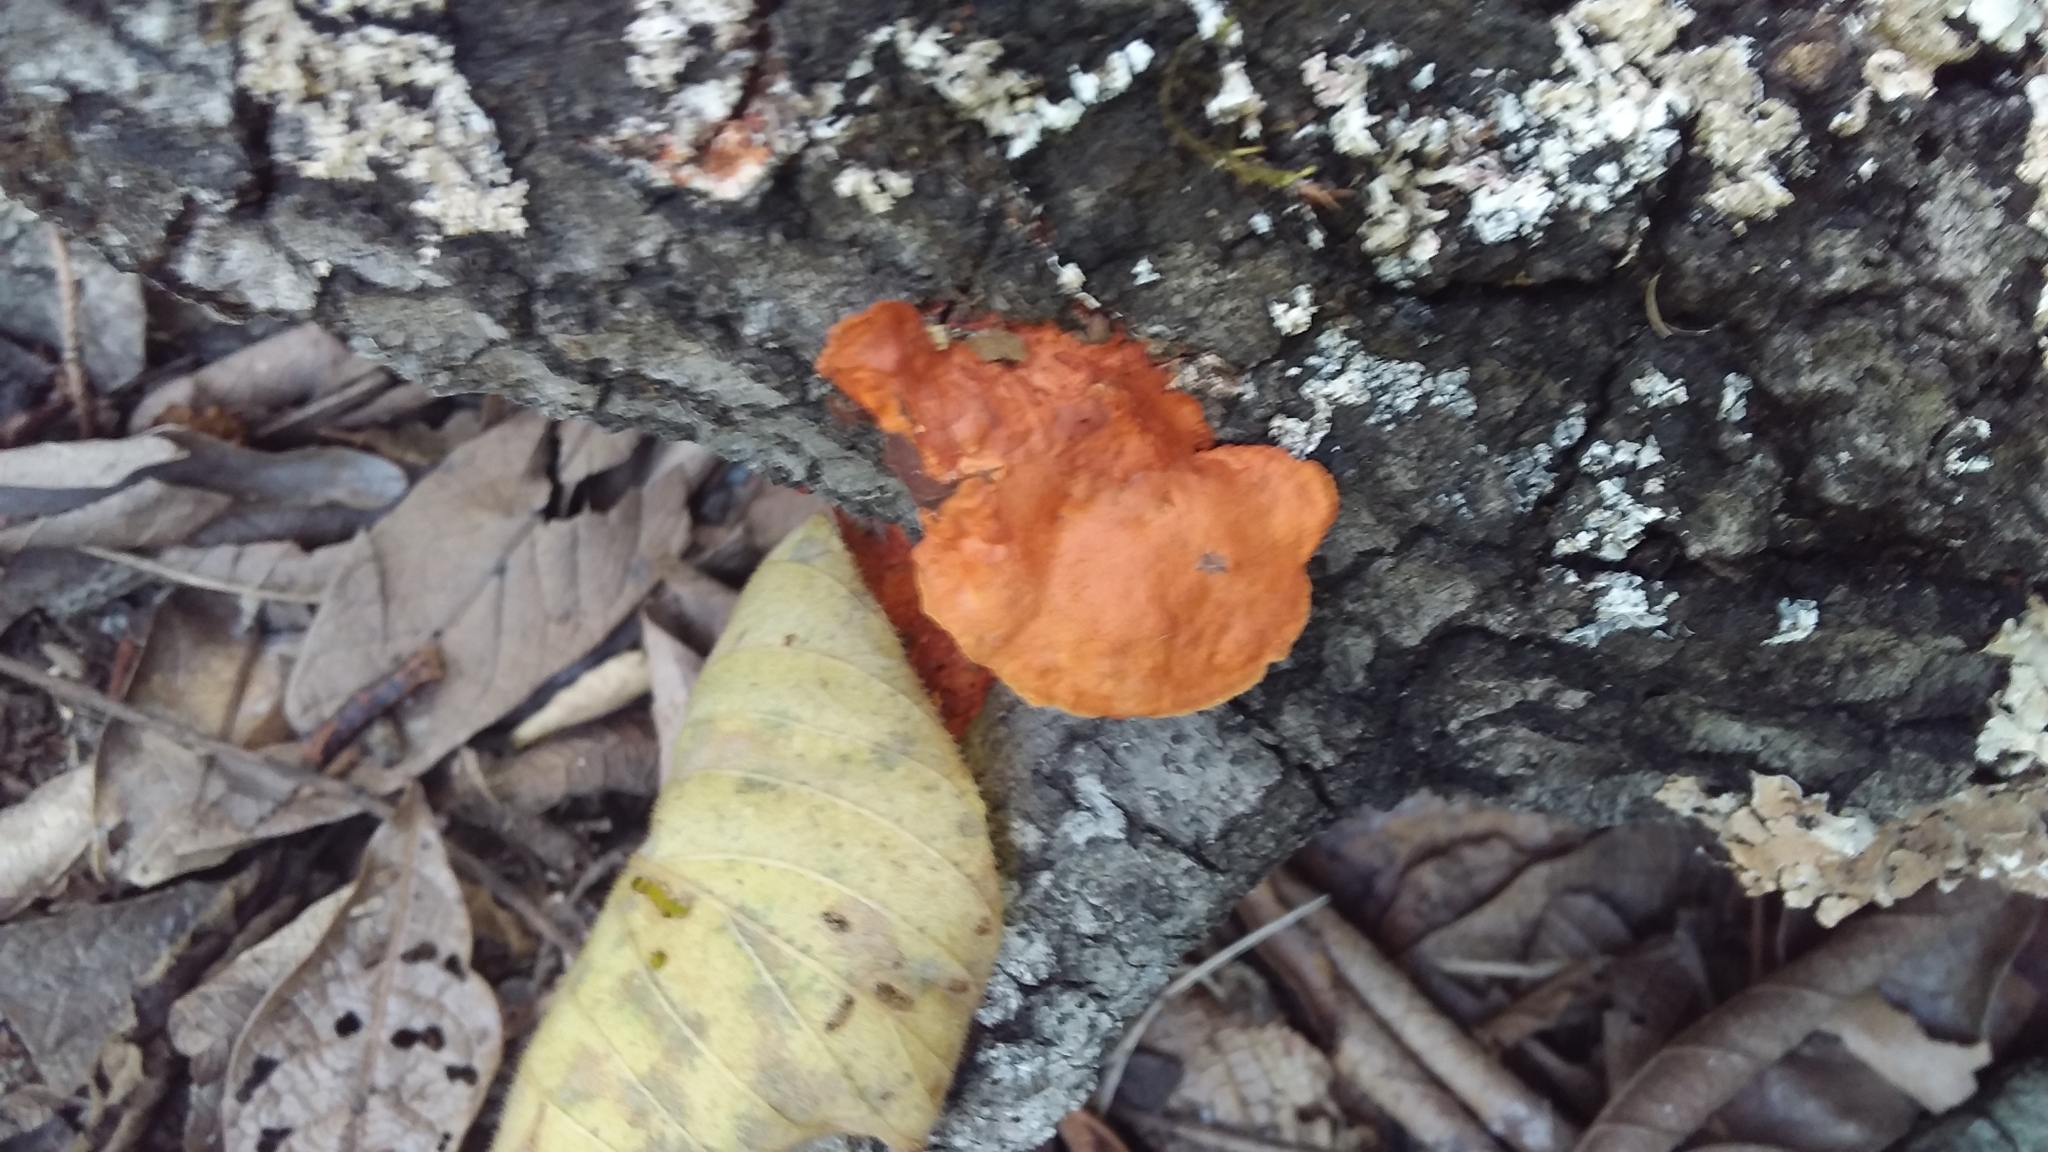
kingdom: Fungi
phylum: Basidiomycota
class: Agaricomycetes
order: Polyporales
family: Polyporaceae
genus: Trametes
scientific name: Trametes cinnabarina
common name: Northern cinnabar polypore
